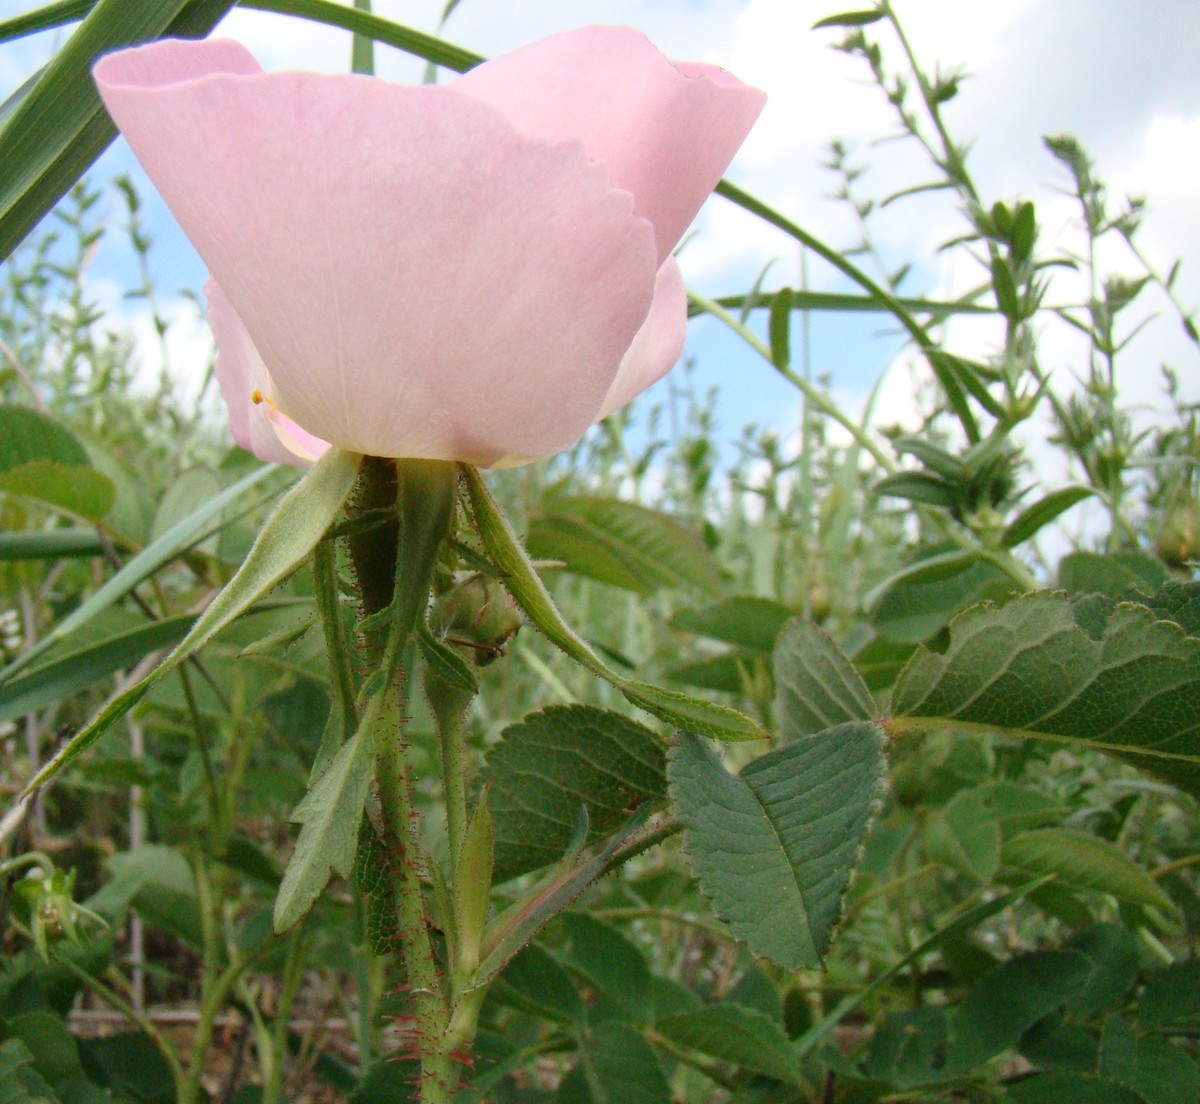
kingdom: Plantae
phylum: Tracheophyta
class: Magnoliopsida
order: Rosales
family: Rosaceae
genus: Rosa
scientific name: Rosa gallica
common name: French rose
